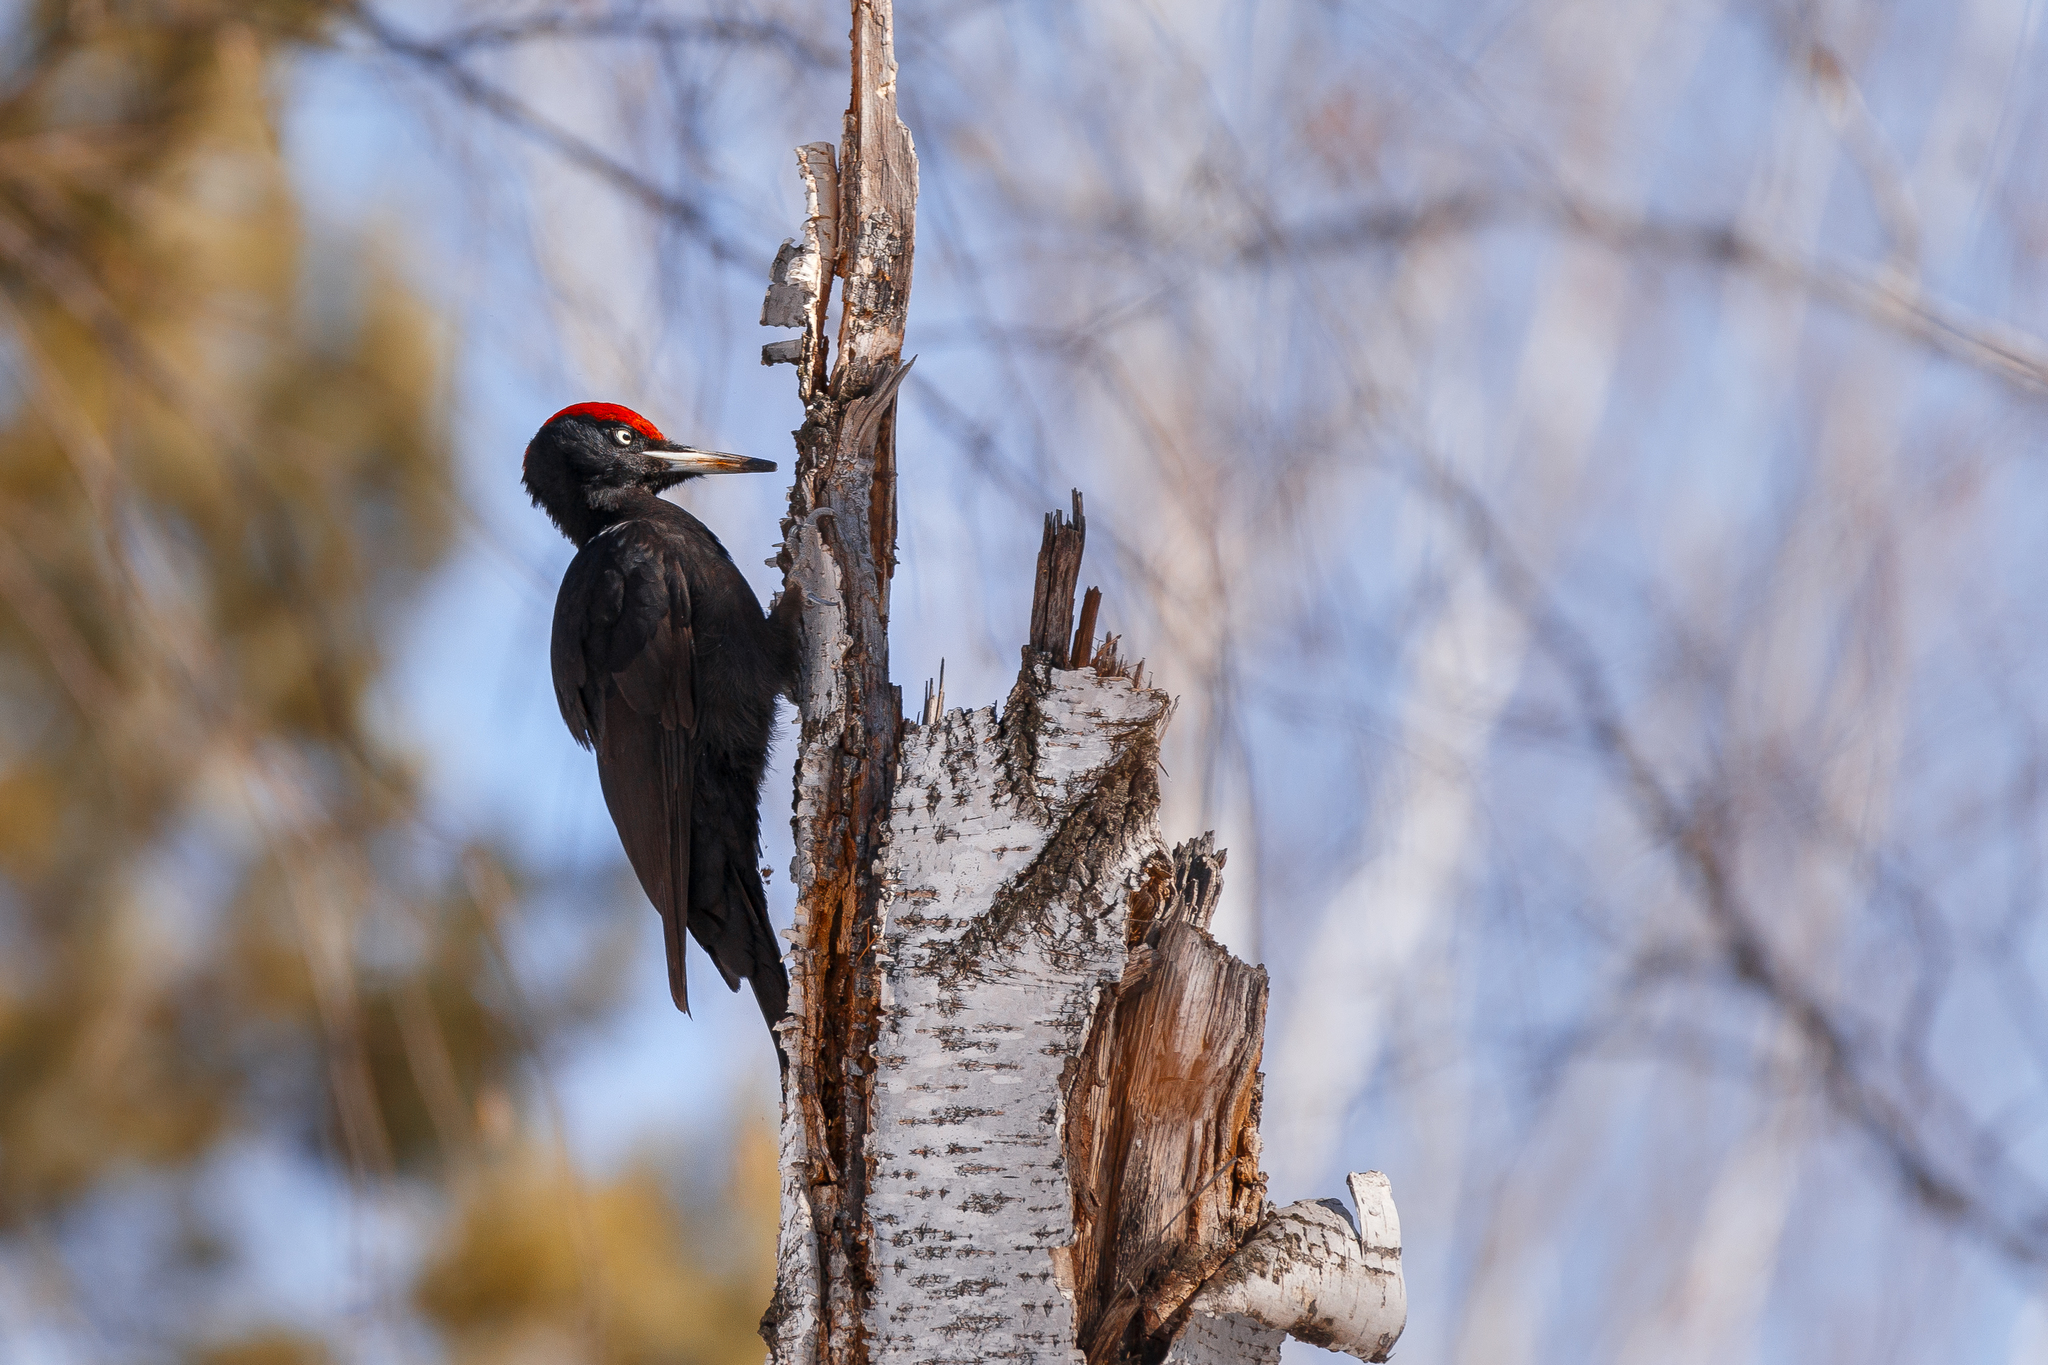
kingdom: Animalia
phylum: Chordata
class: Aves
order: Piciformes
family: Picidae
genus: Dryocopus
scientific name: Dryocopus martius
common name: Black woodpecker
